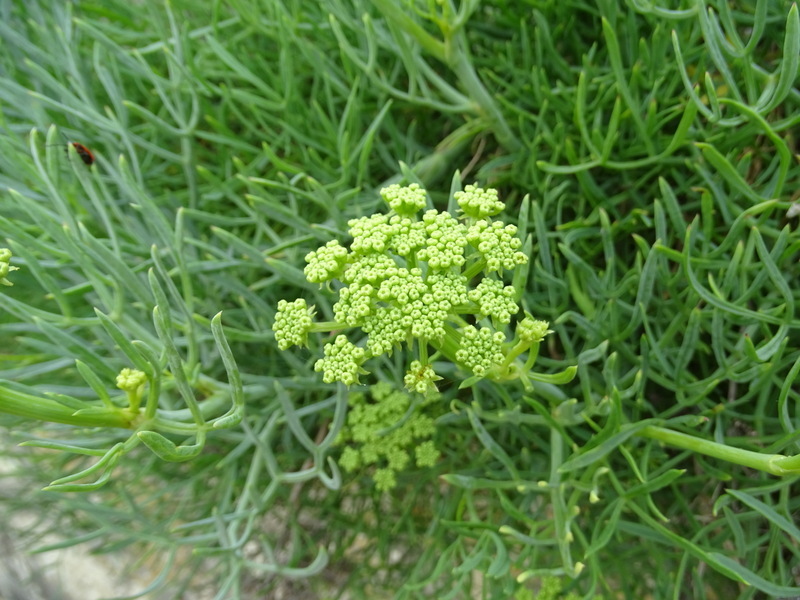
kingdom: Plantae
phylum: Tracheophyta
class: Magnoliopsida
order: Apiales
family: Apiaceae
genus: Crithmum
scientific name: Crithmum maritimum
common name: Rock samphire
